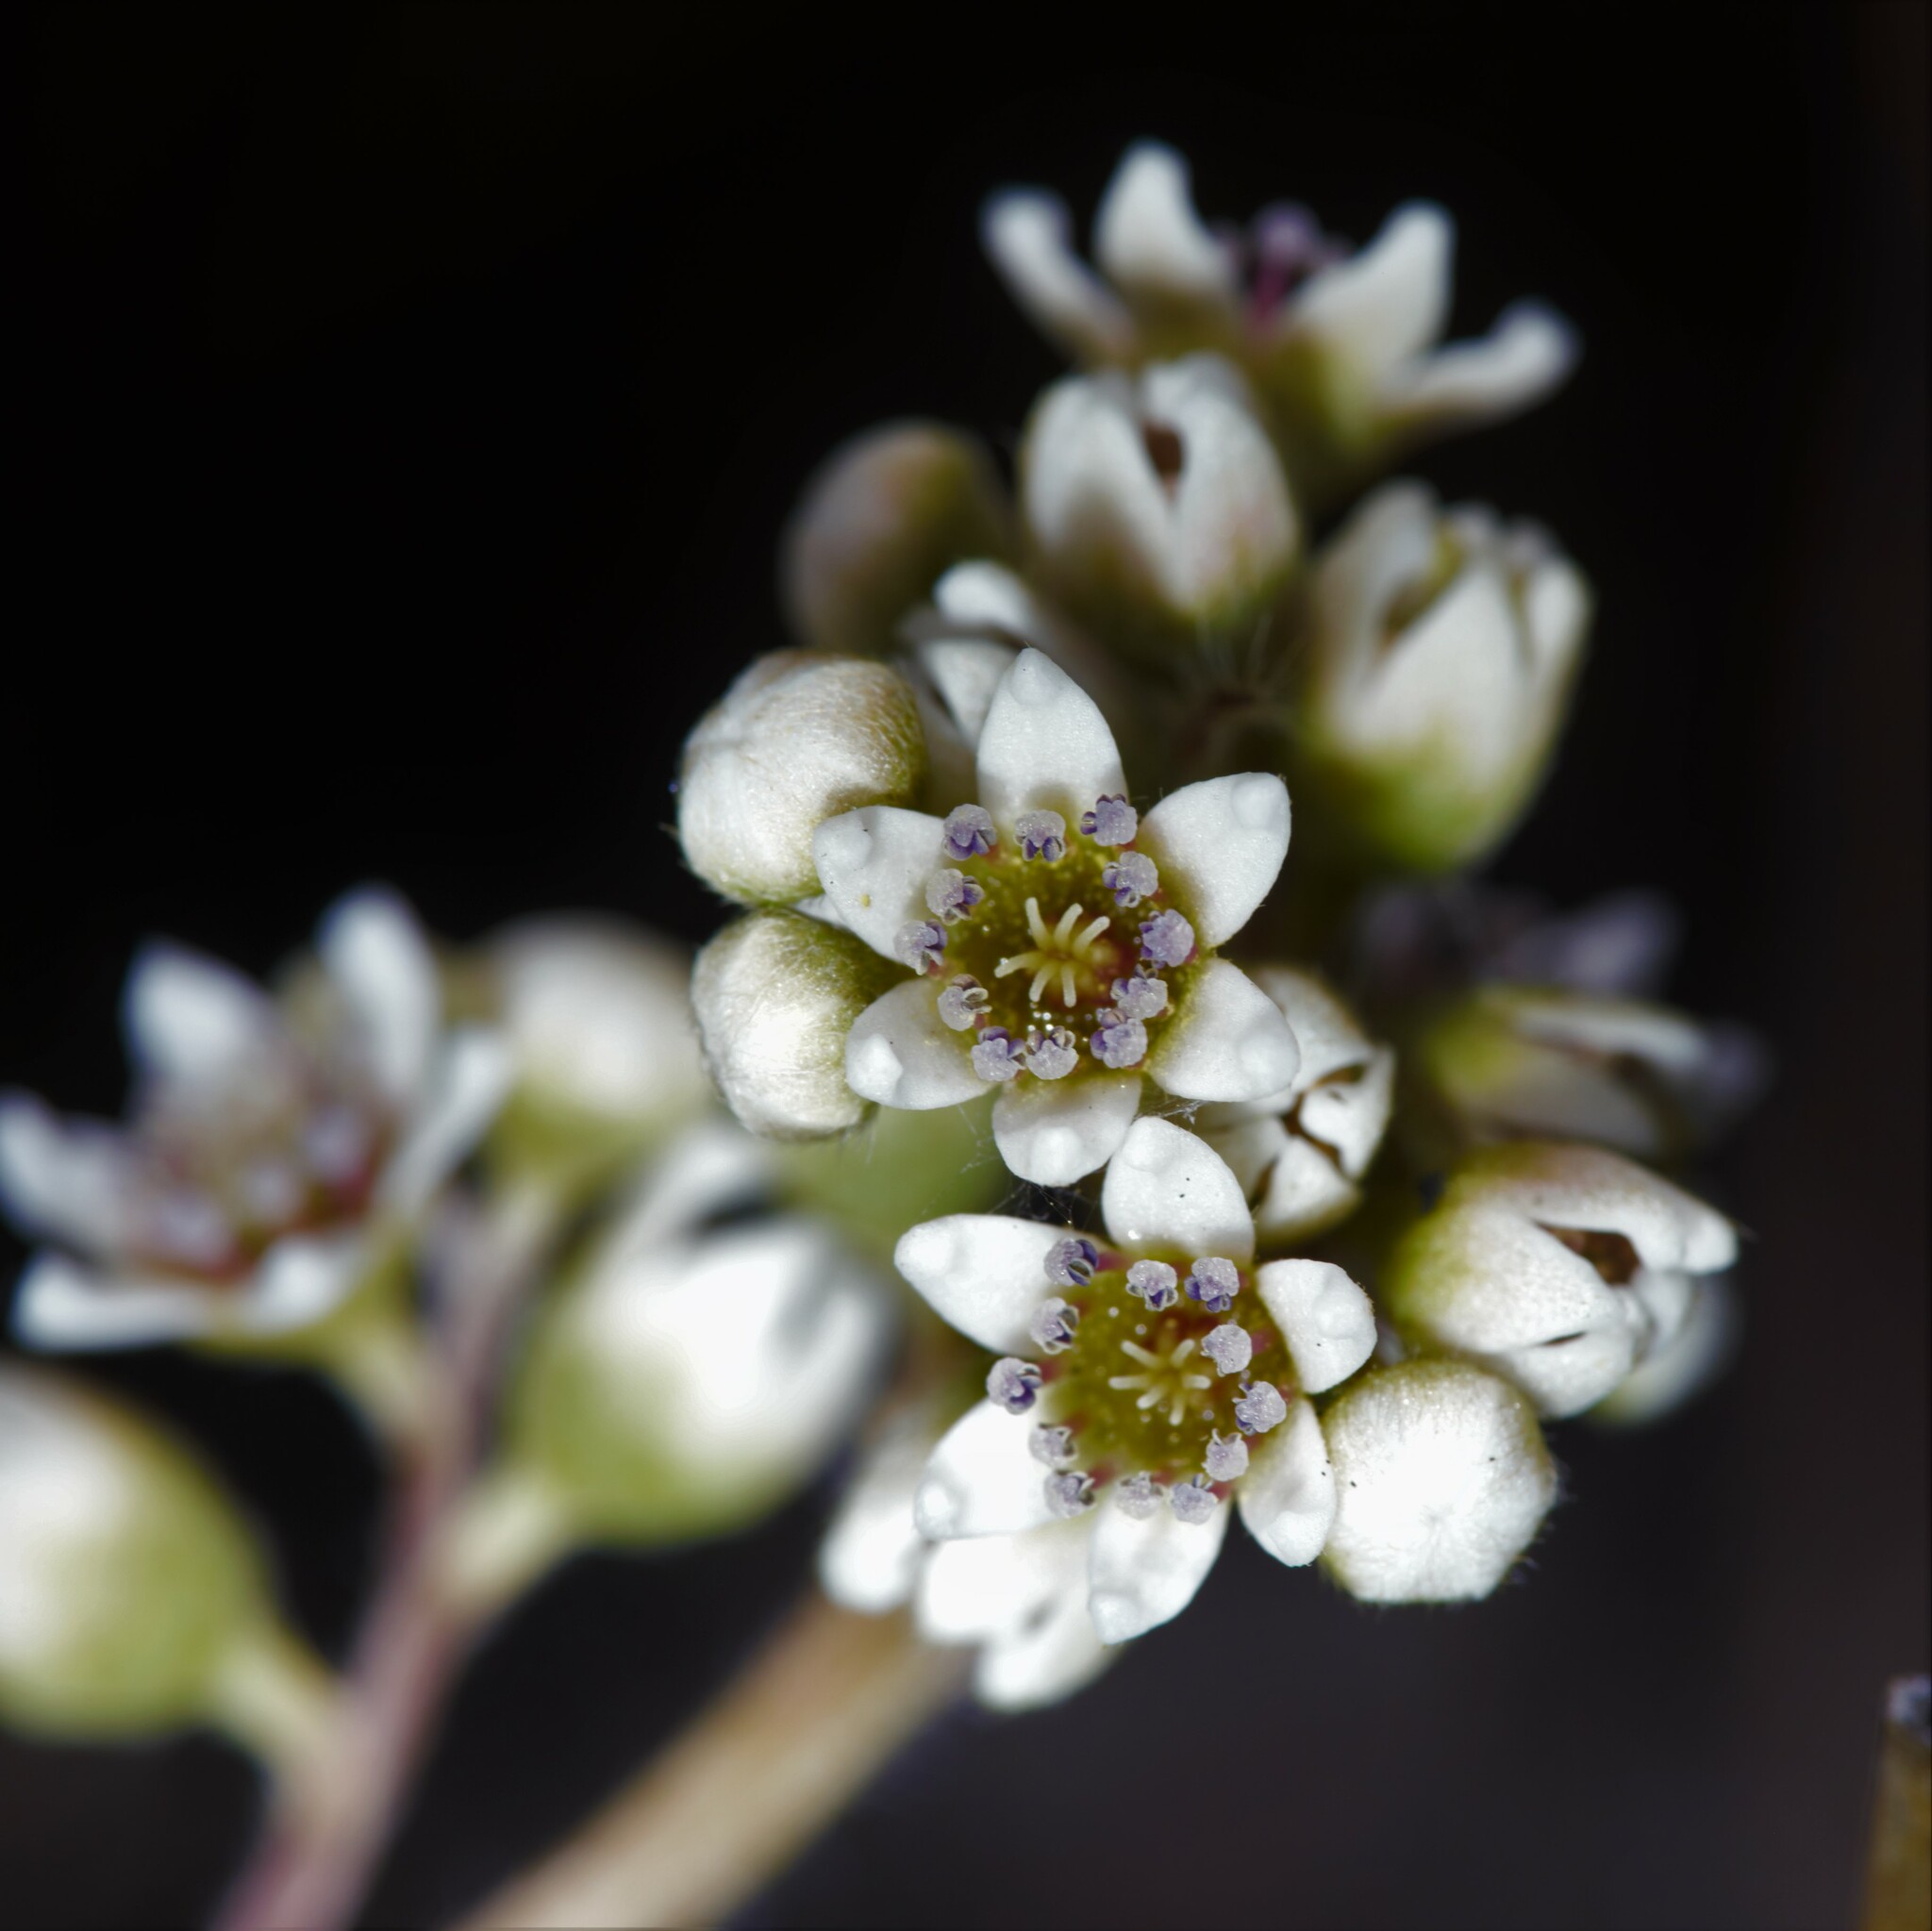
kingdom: Plantae
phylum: Tracheophyta
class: Magnoliopsida
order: Oxalidales
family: Cephalotaceae
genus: Cephalotus
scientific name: Cephalotus follicularis
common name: Australian pitcher plant
